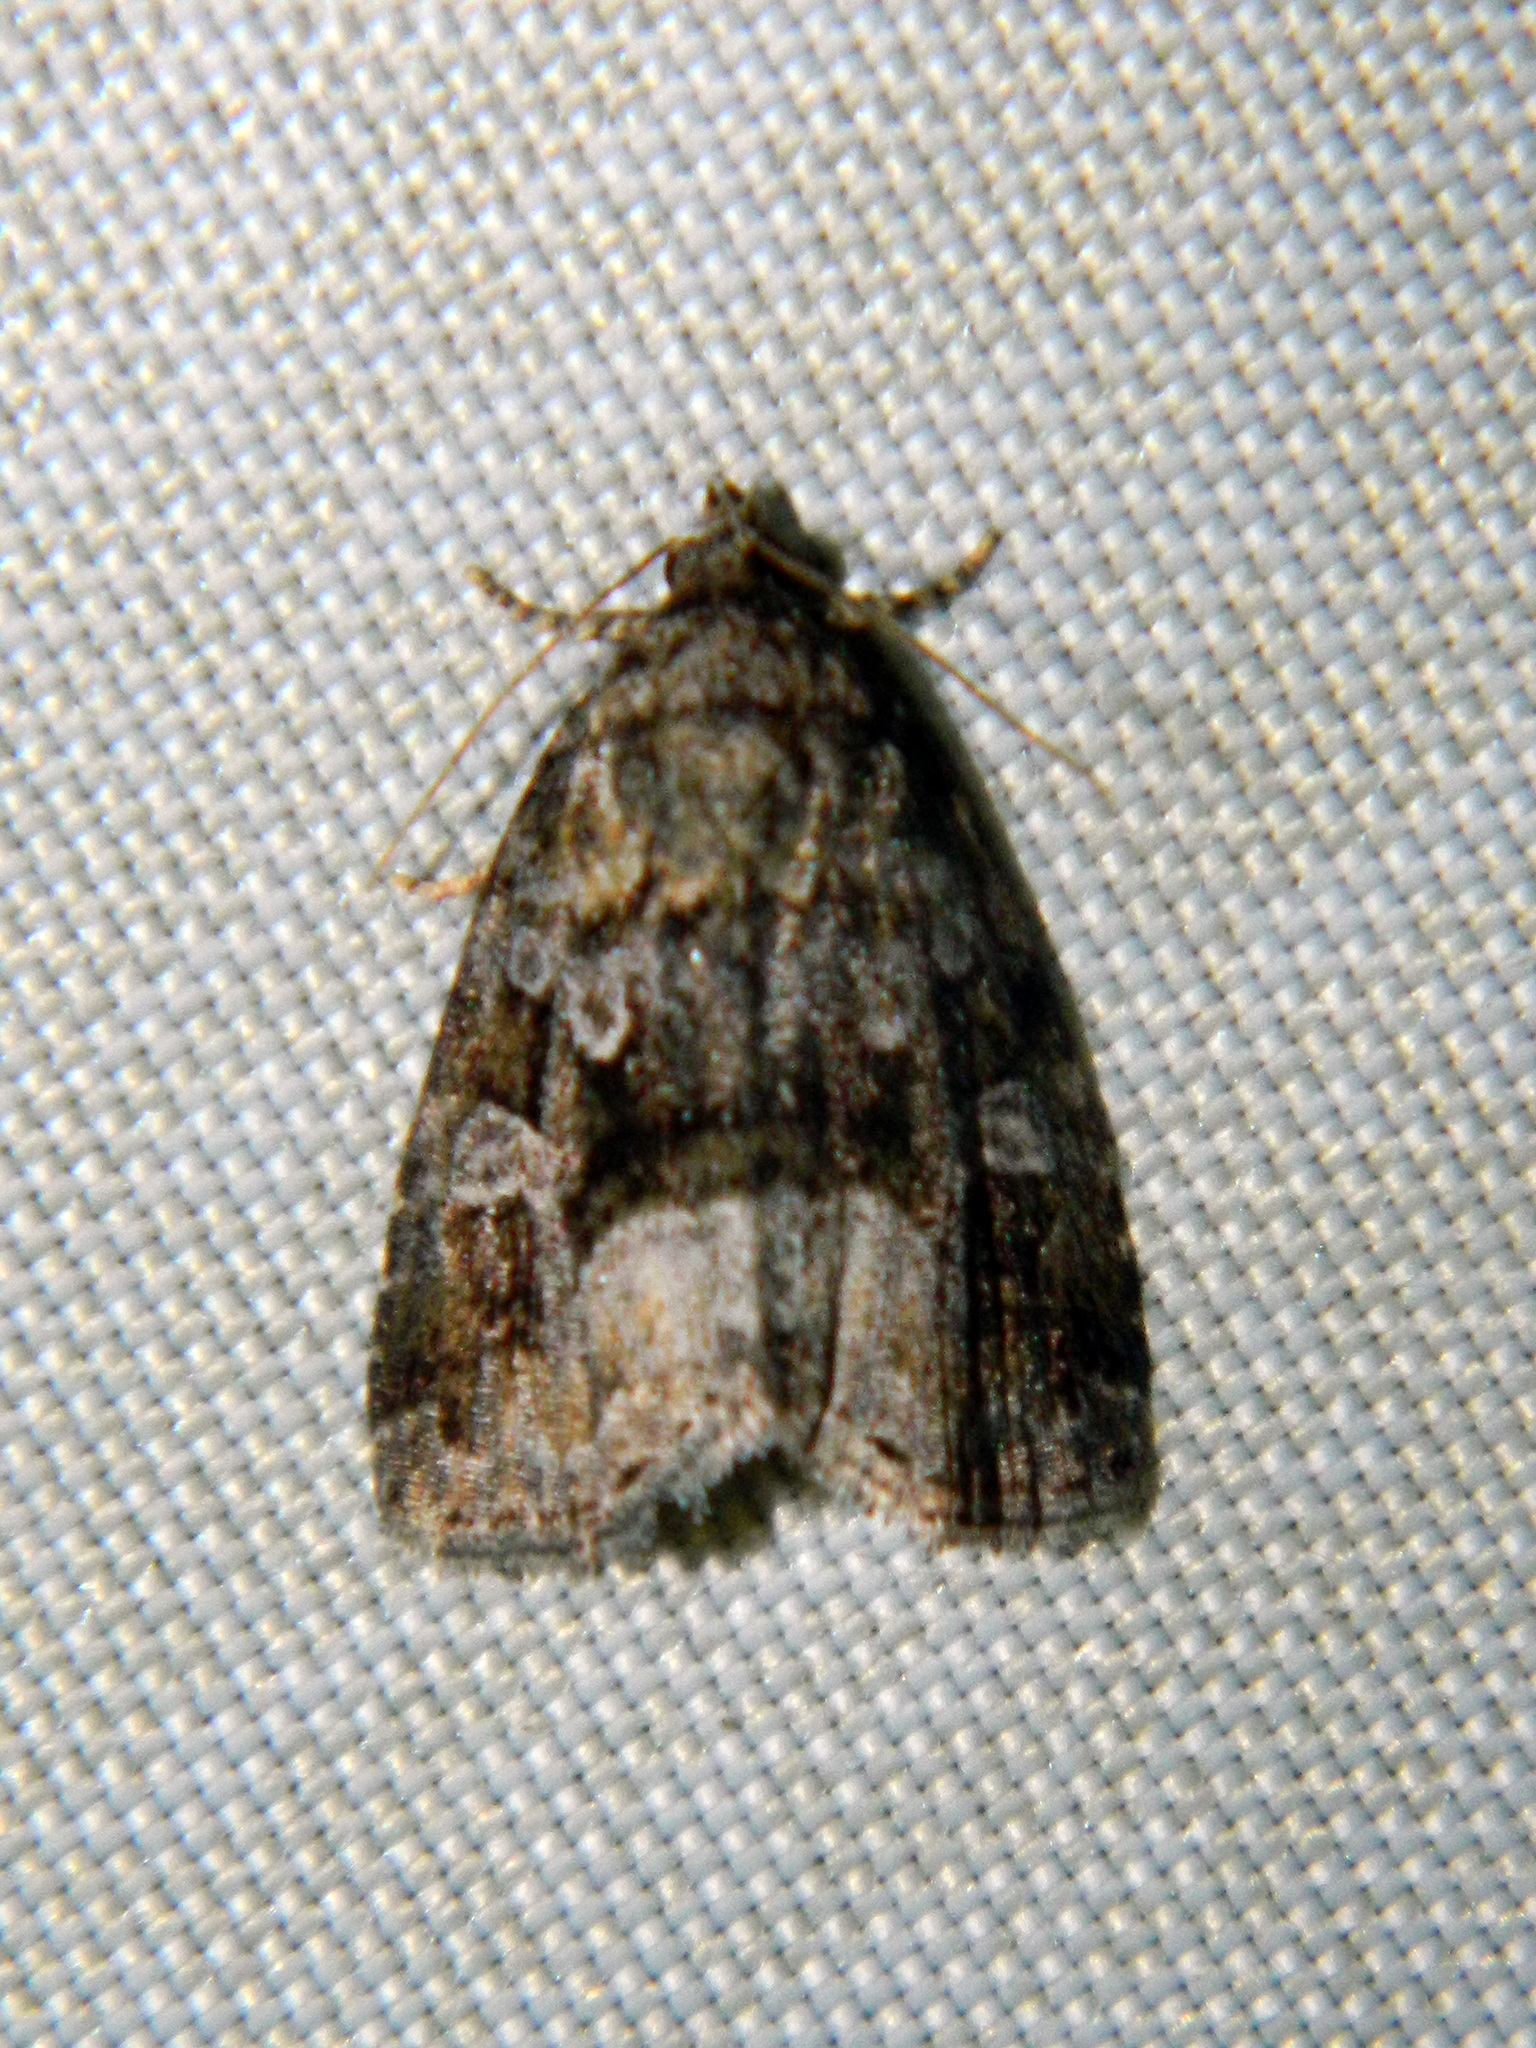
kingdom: Animalia
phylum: Arthropoda
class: Insecta
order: Lepidoptera
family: Noctuidae
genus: Protodeltote
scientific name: Protodeltote muscosula
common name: Large mossy glyph
